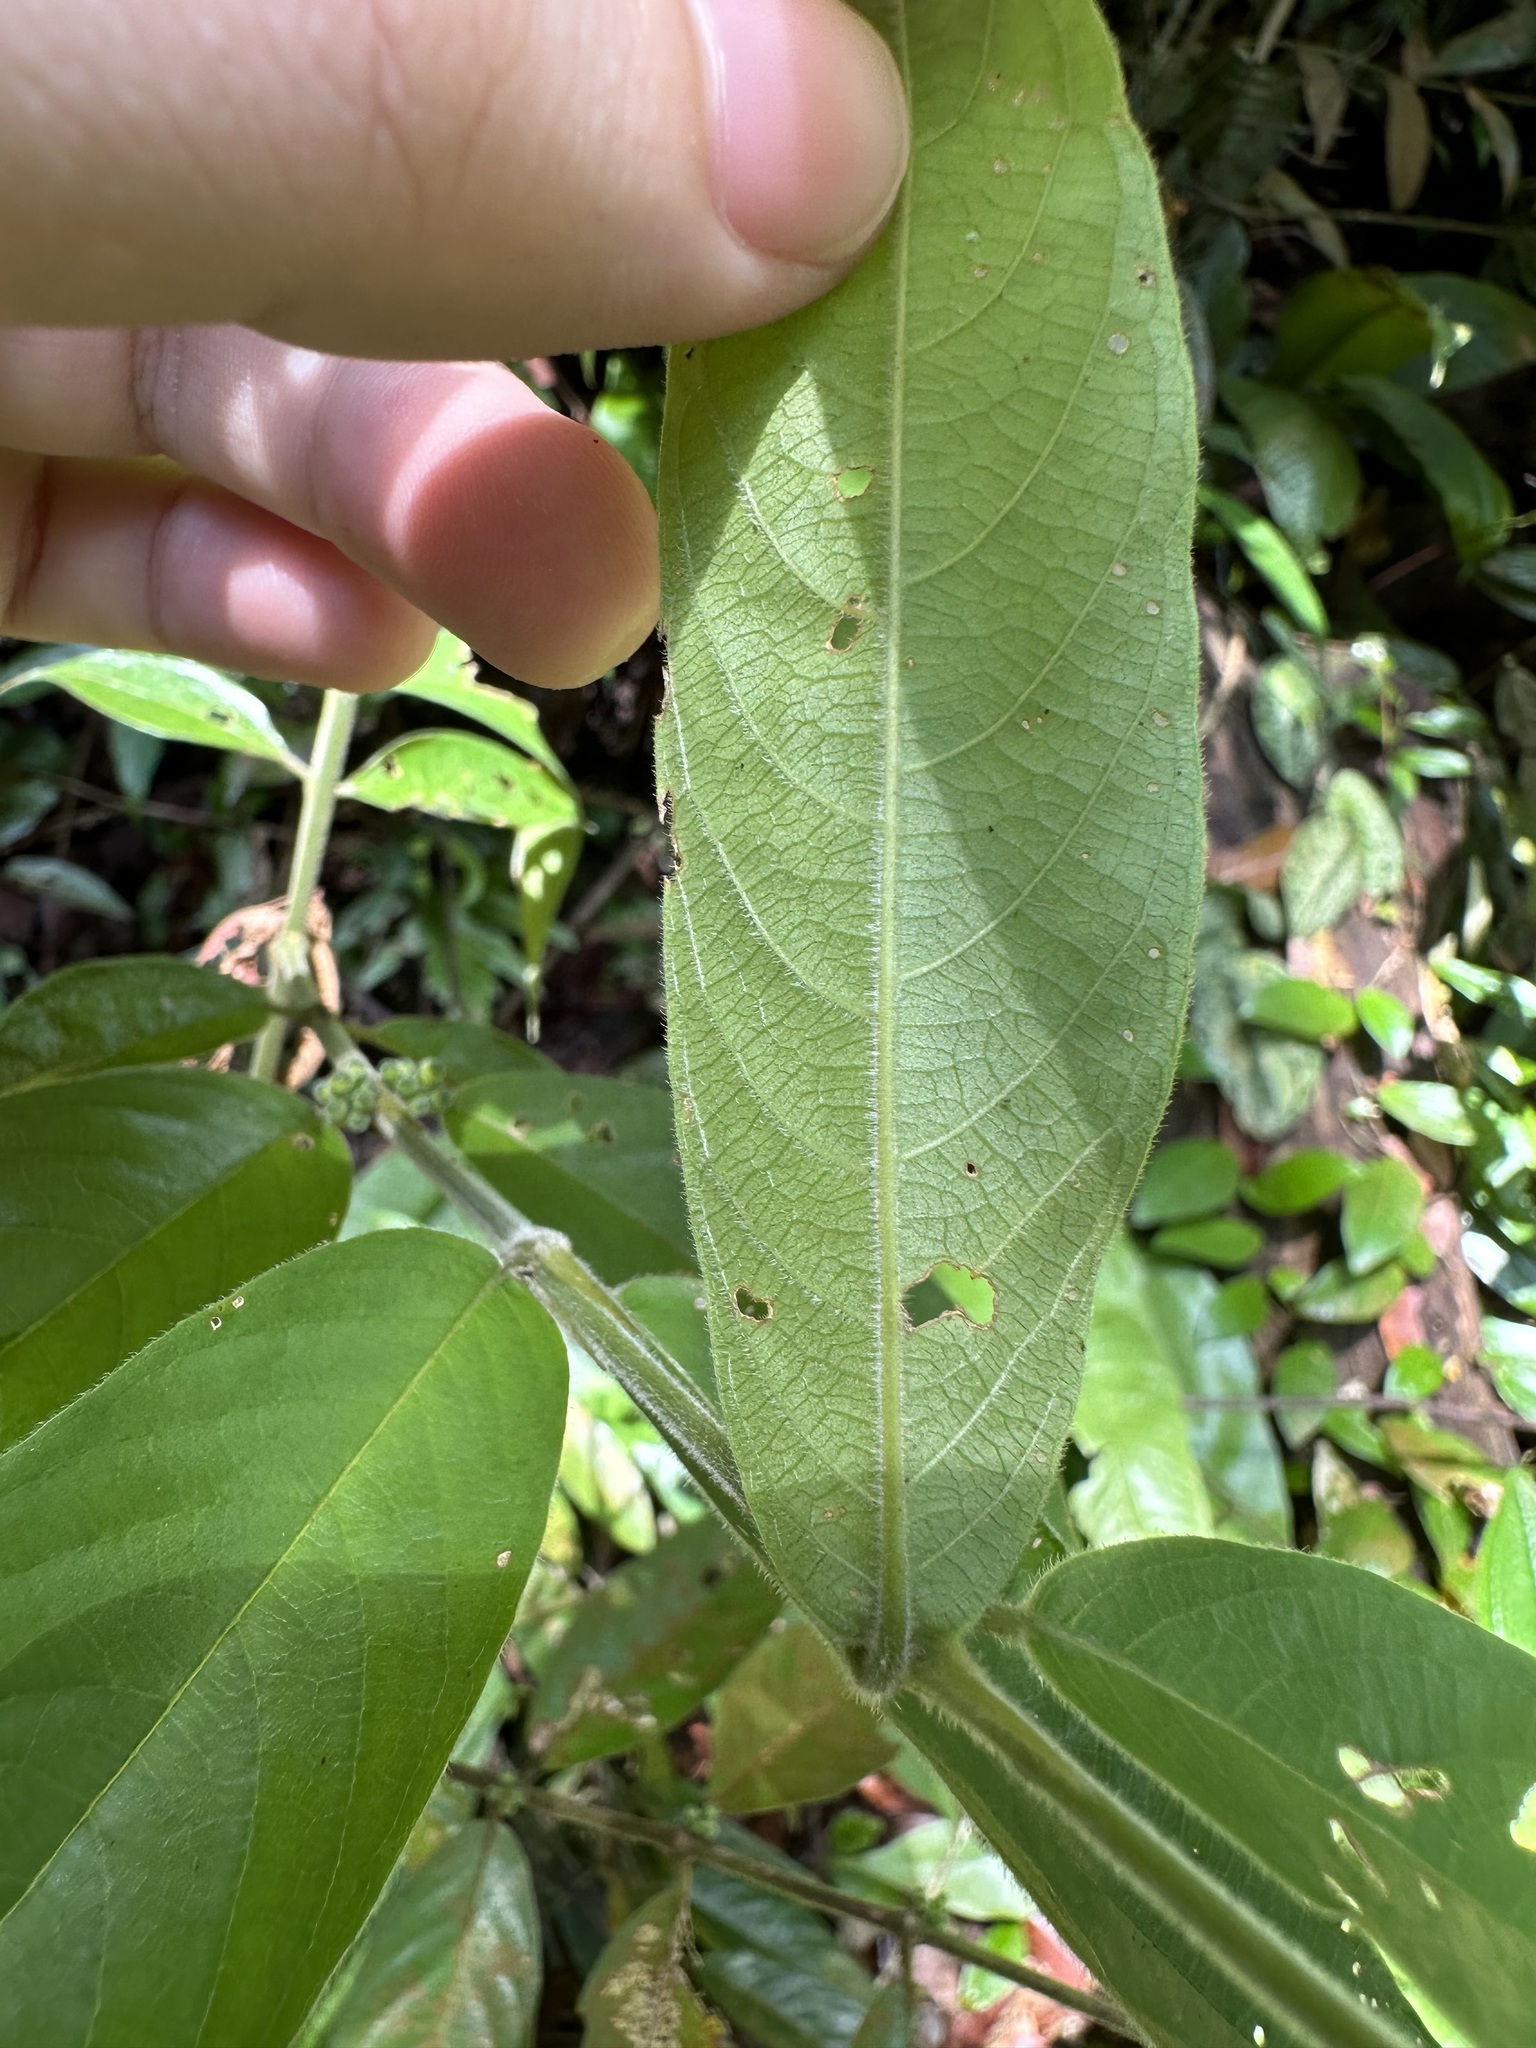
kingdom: Plantae
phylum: Tracheophyta
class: Magnoliopsida
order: Gentianales
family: Rubiaceae
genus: Urophyllum
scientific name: Urophyllum hirsutum
